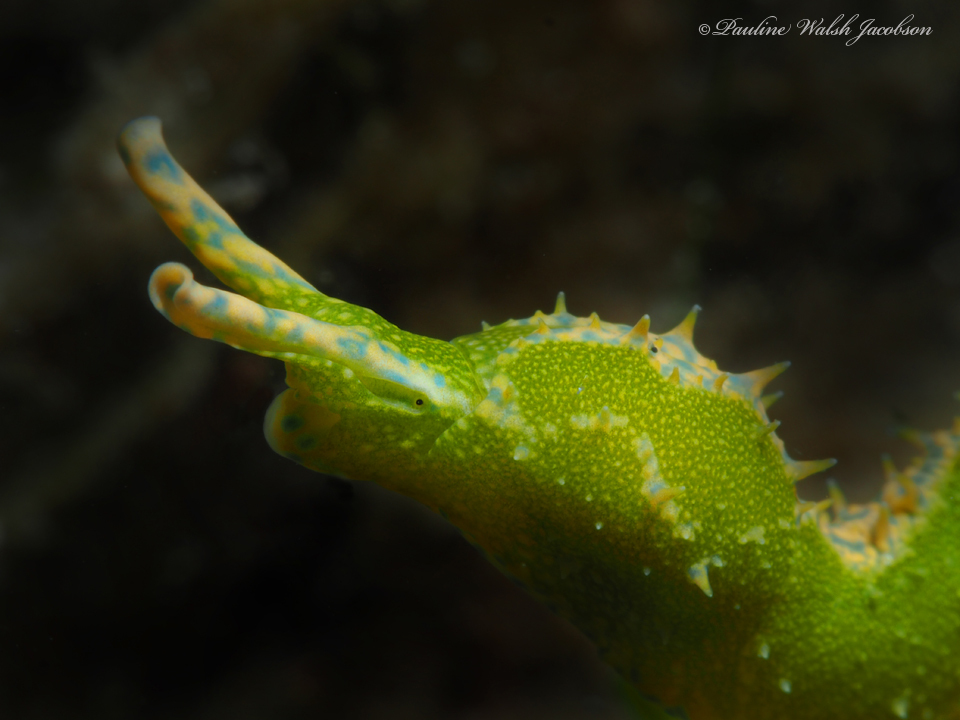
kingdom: Animalia
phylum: Mollusca
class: Gastropoda
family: Oxynoidae
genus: Oxynoe
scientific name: Oxynoe antillarum
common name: Antilles oxynoe
